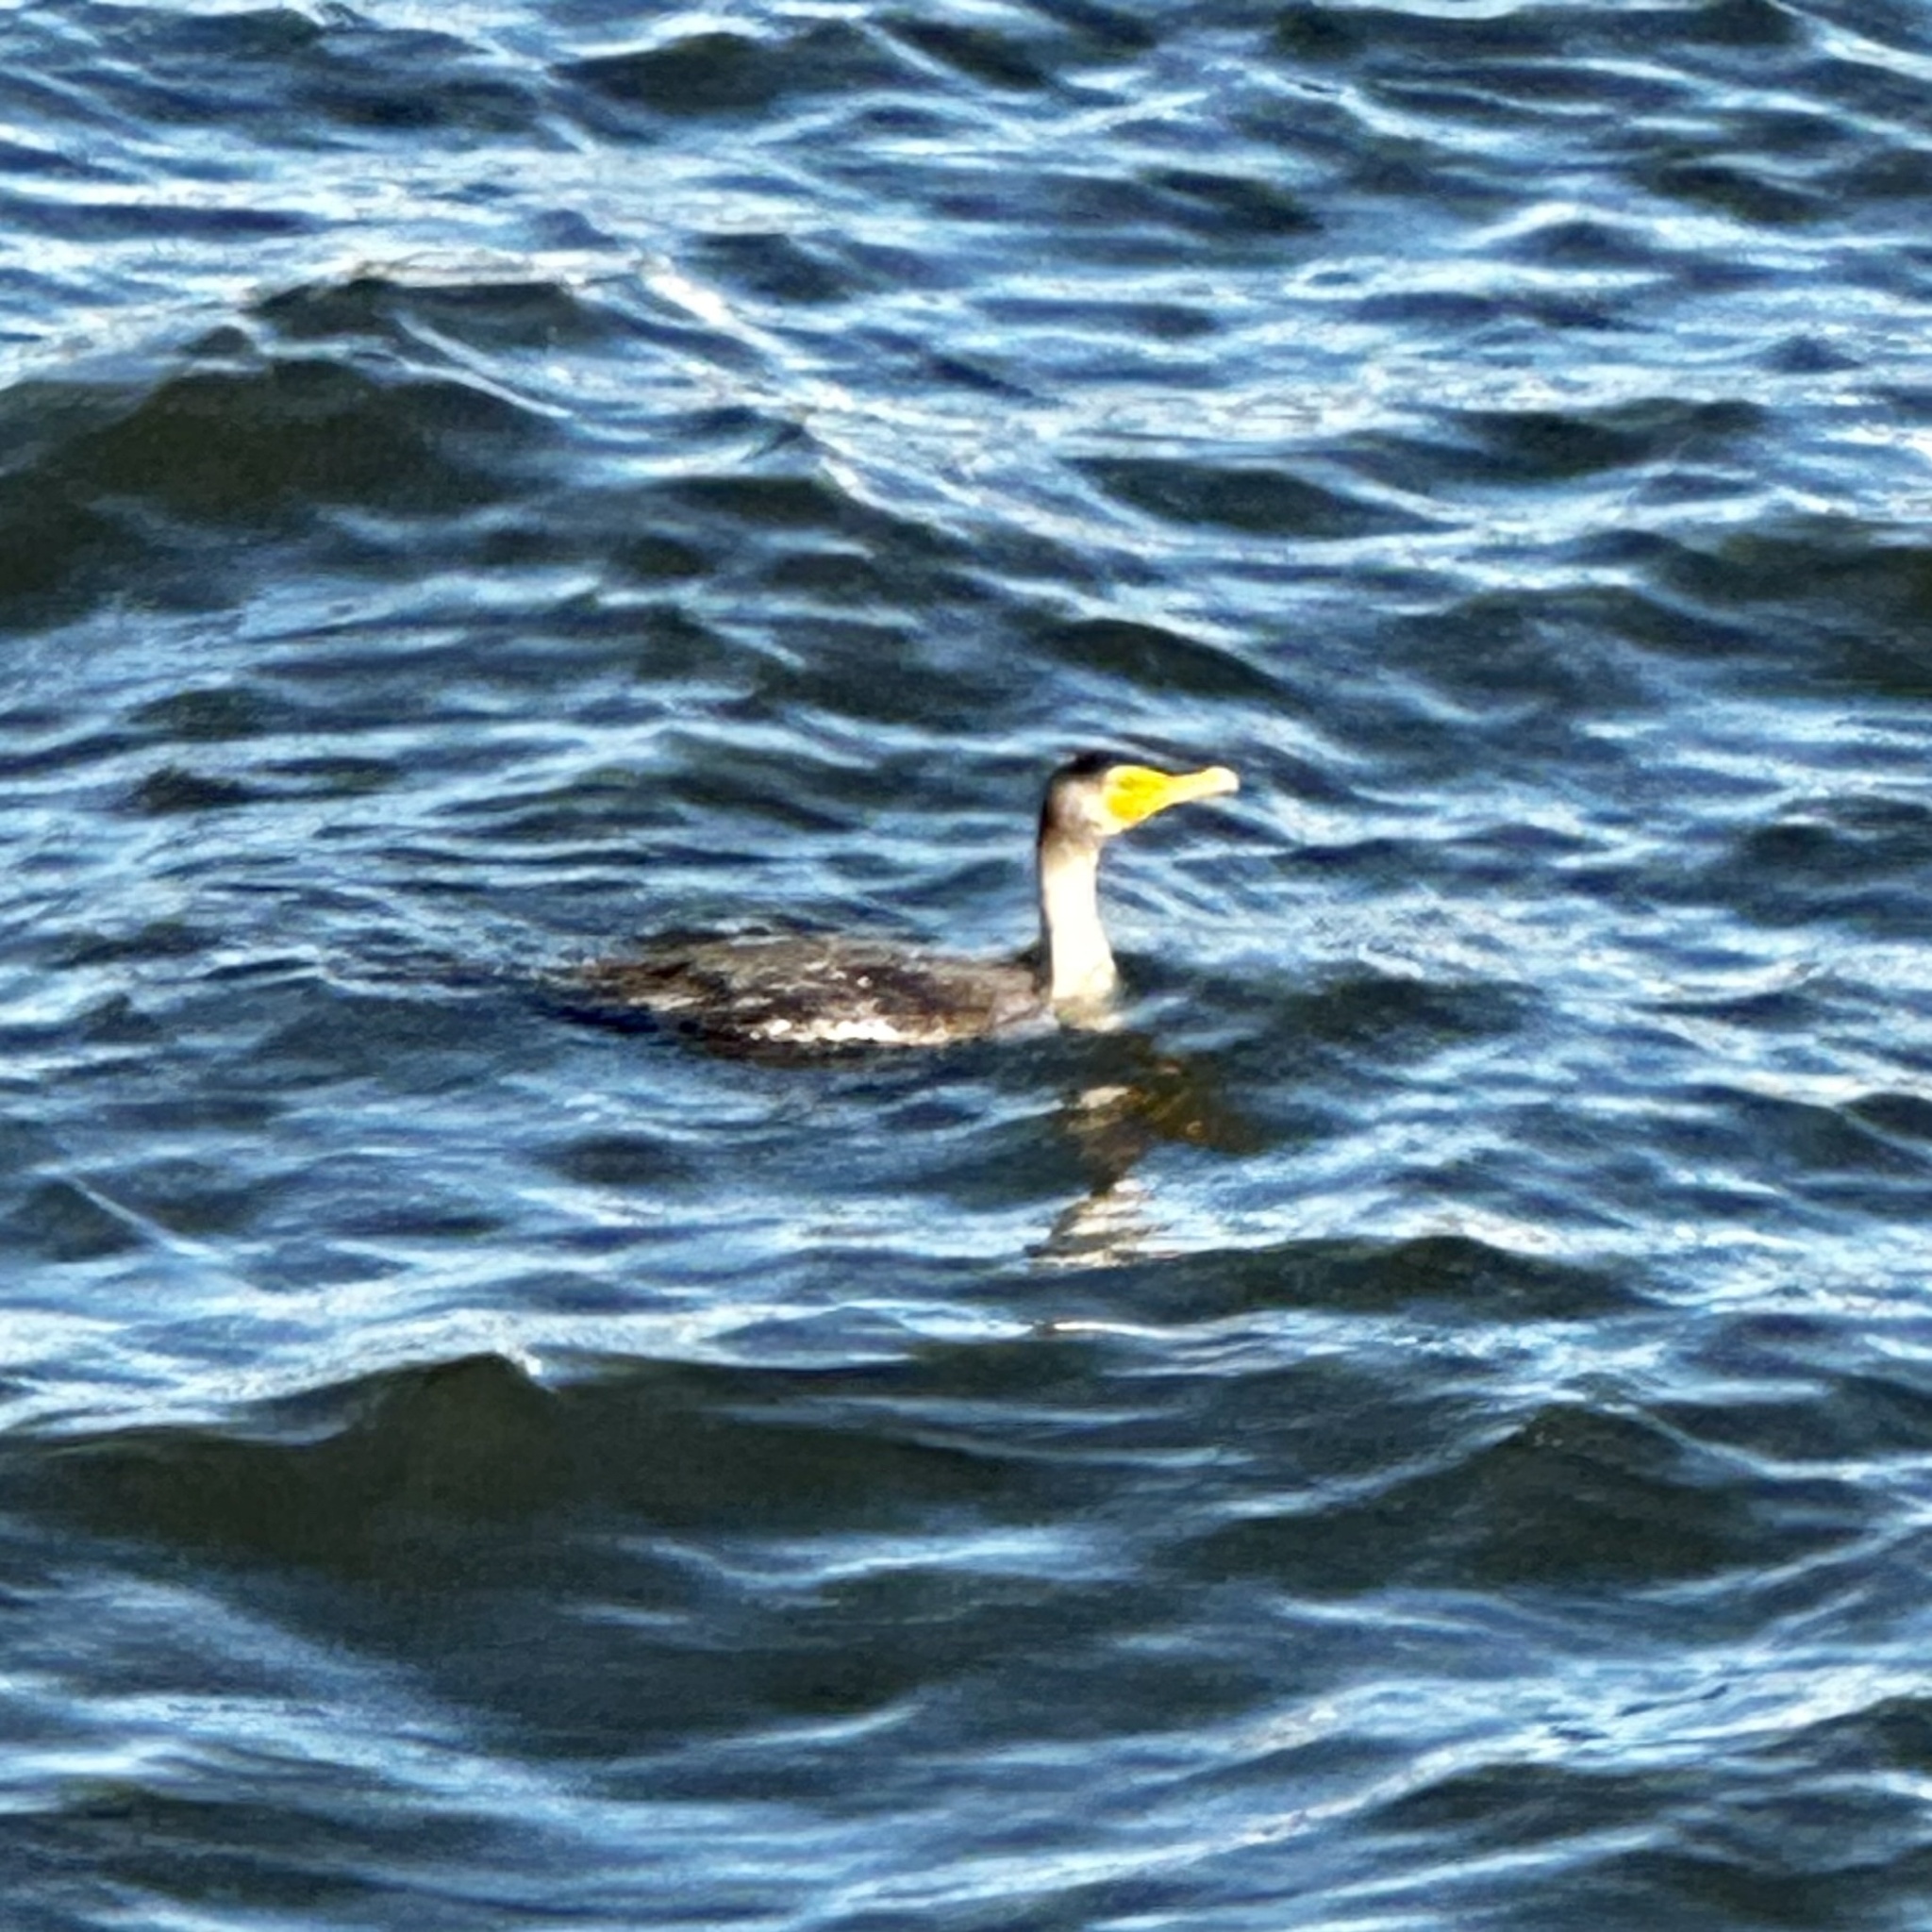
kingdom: Animalia
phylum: Chordata
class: Aves
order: Suliformes
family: Phalacrocoracidae
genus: Phalacrocorax
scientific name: Phalacrocorax auritus
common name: Double-crested cormorant
